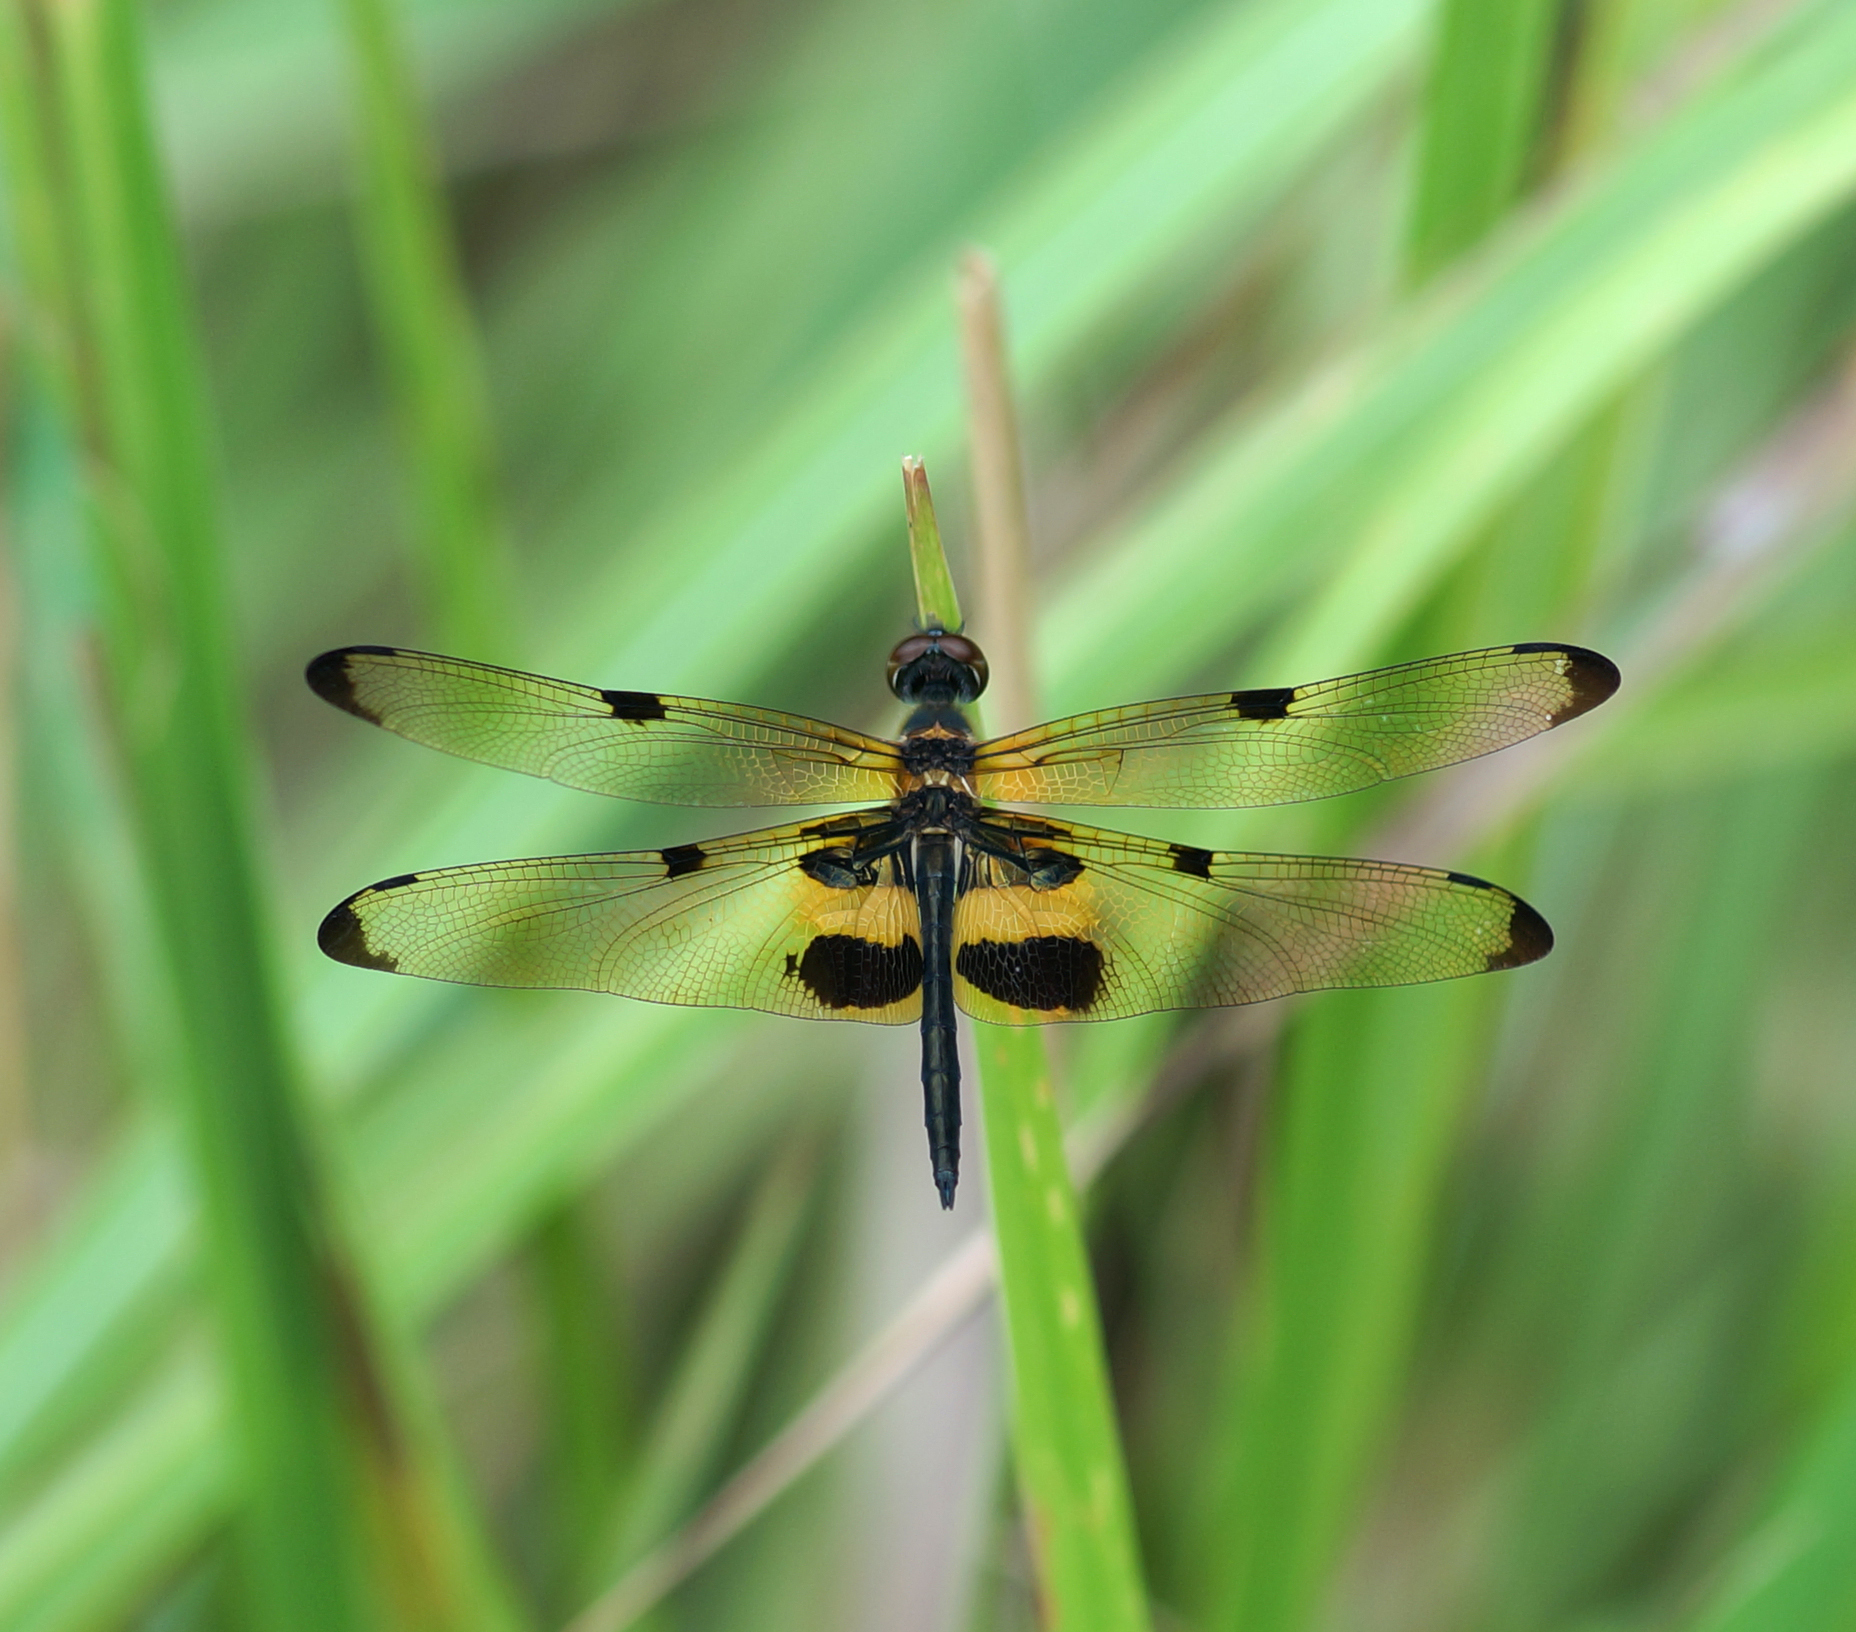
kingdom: Animalia
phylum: Arthropoda
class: Insecta
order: Odonata
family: Libellulidae
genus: Rhyothemis
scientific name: Rhyothemis phyllis
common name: Yellow-barred flutterer
